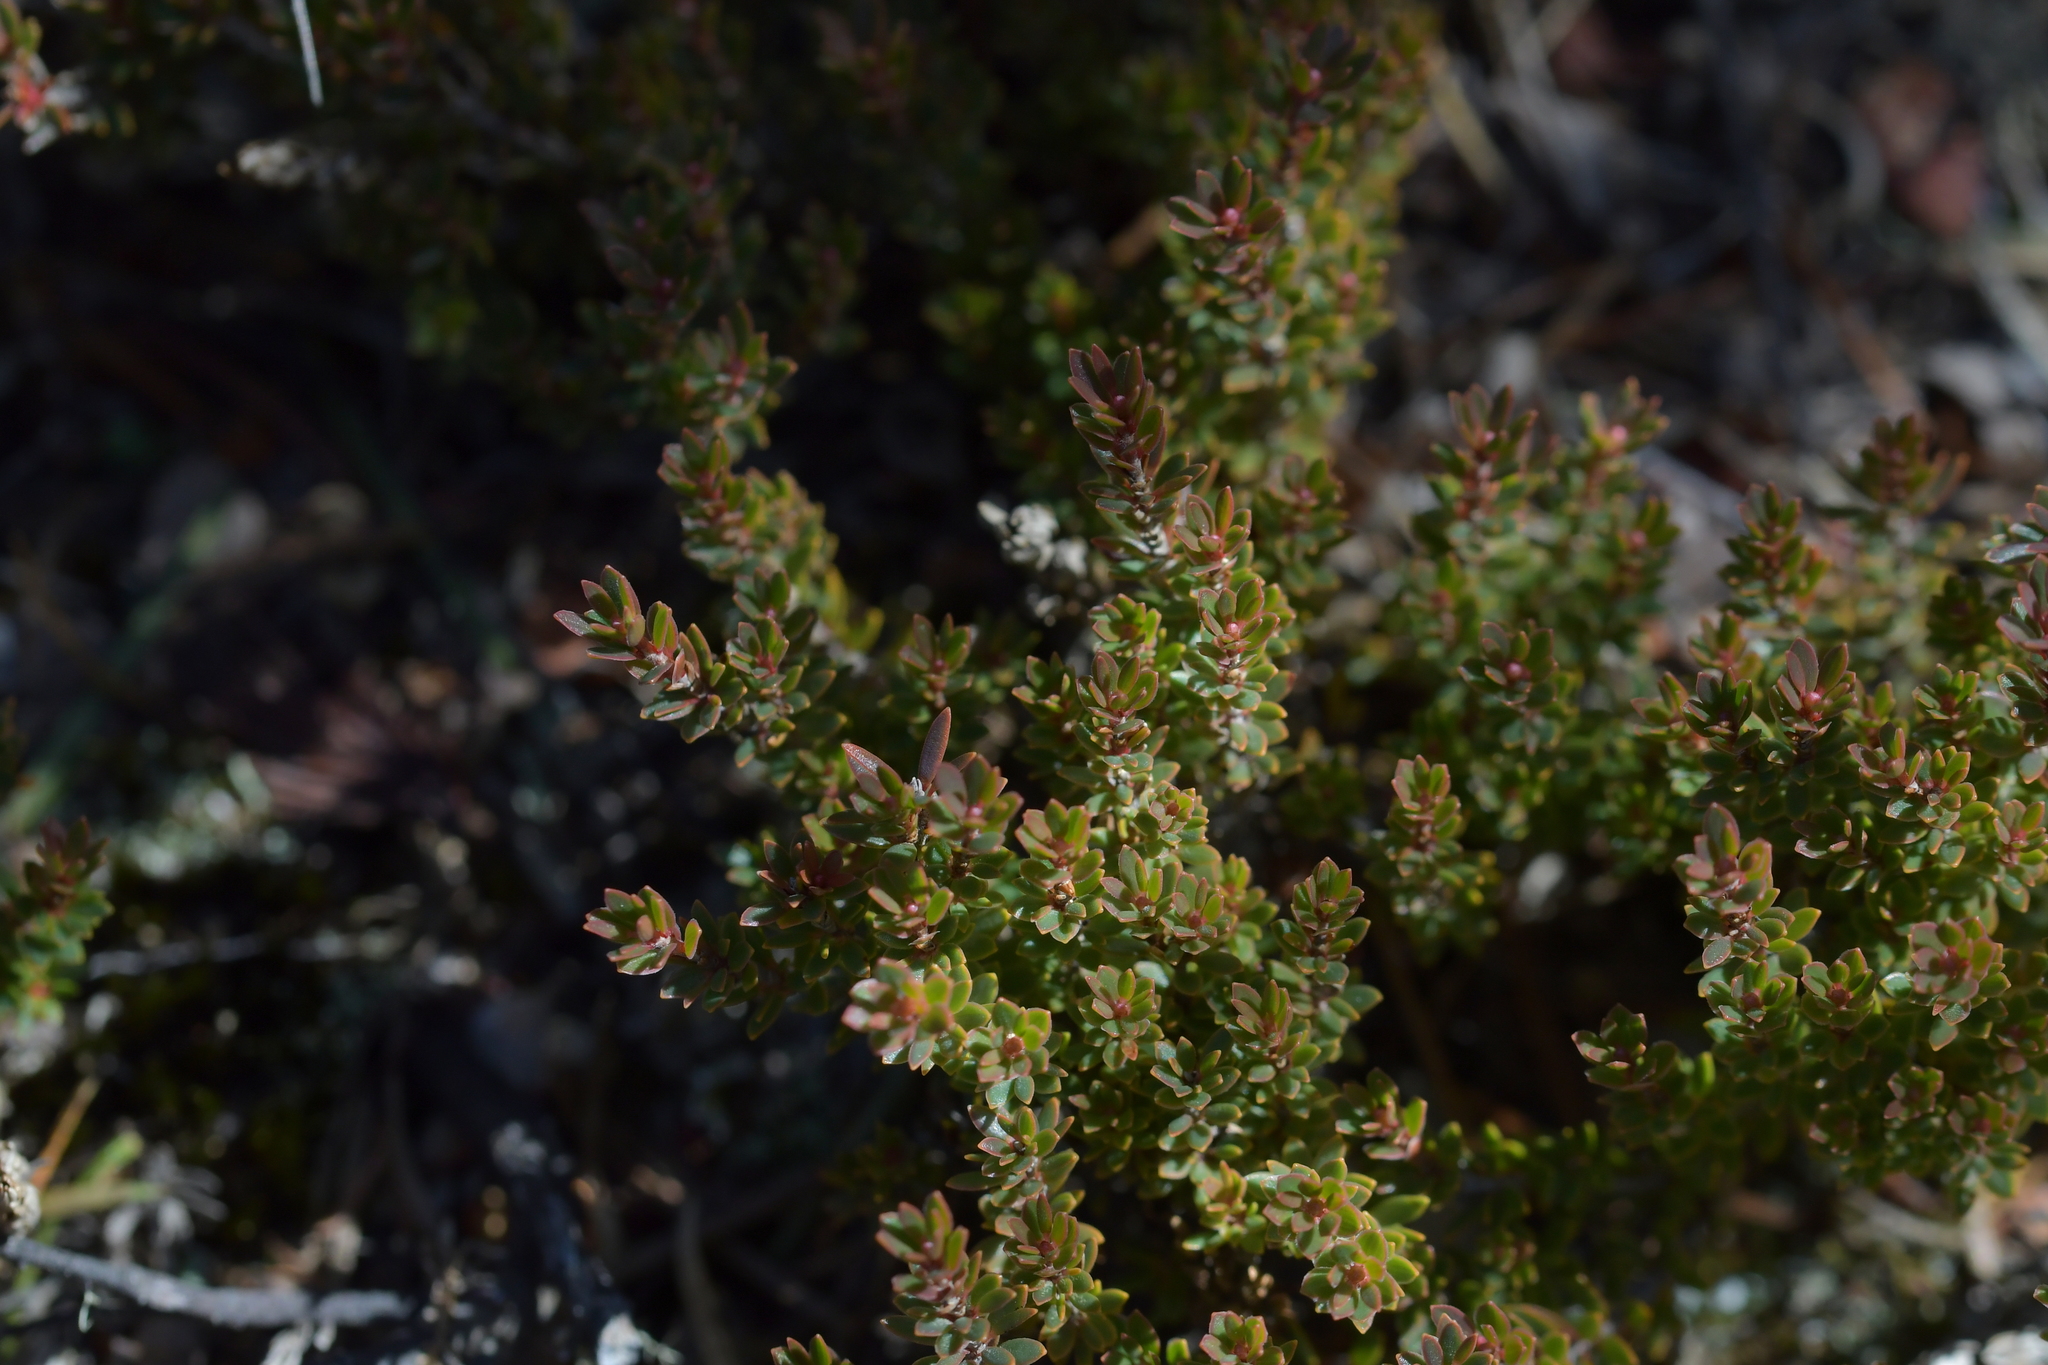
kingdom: Plantae
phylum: Tracheophyta
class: Magnoliopsida
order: Ericales
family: Ericaceae
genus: Pentachondra
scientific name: Pentachondra pumila
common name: Carpet-heath
